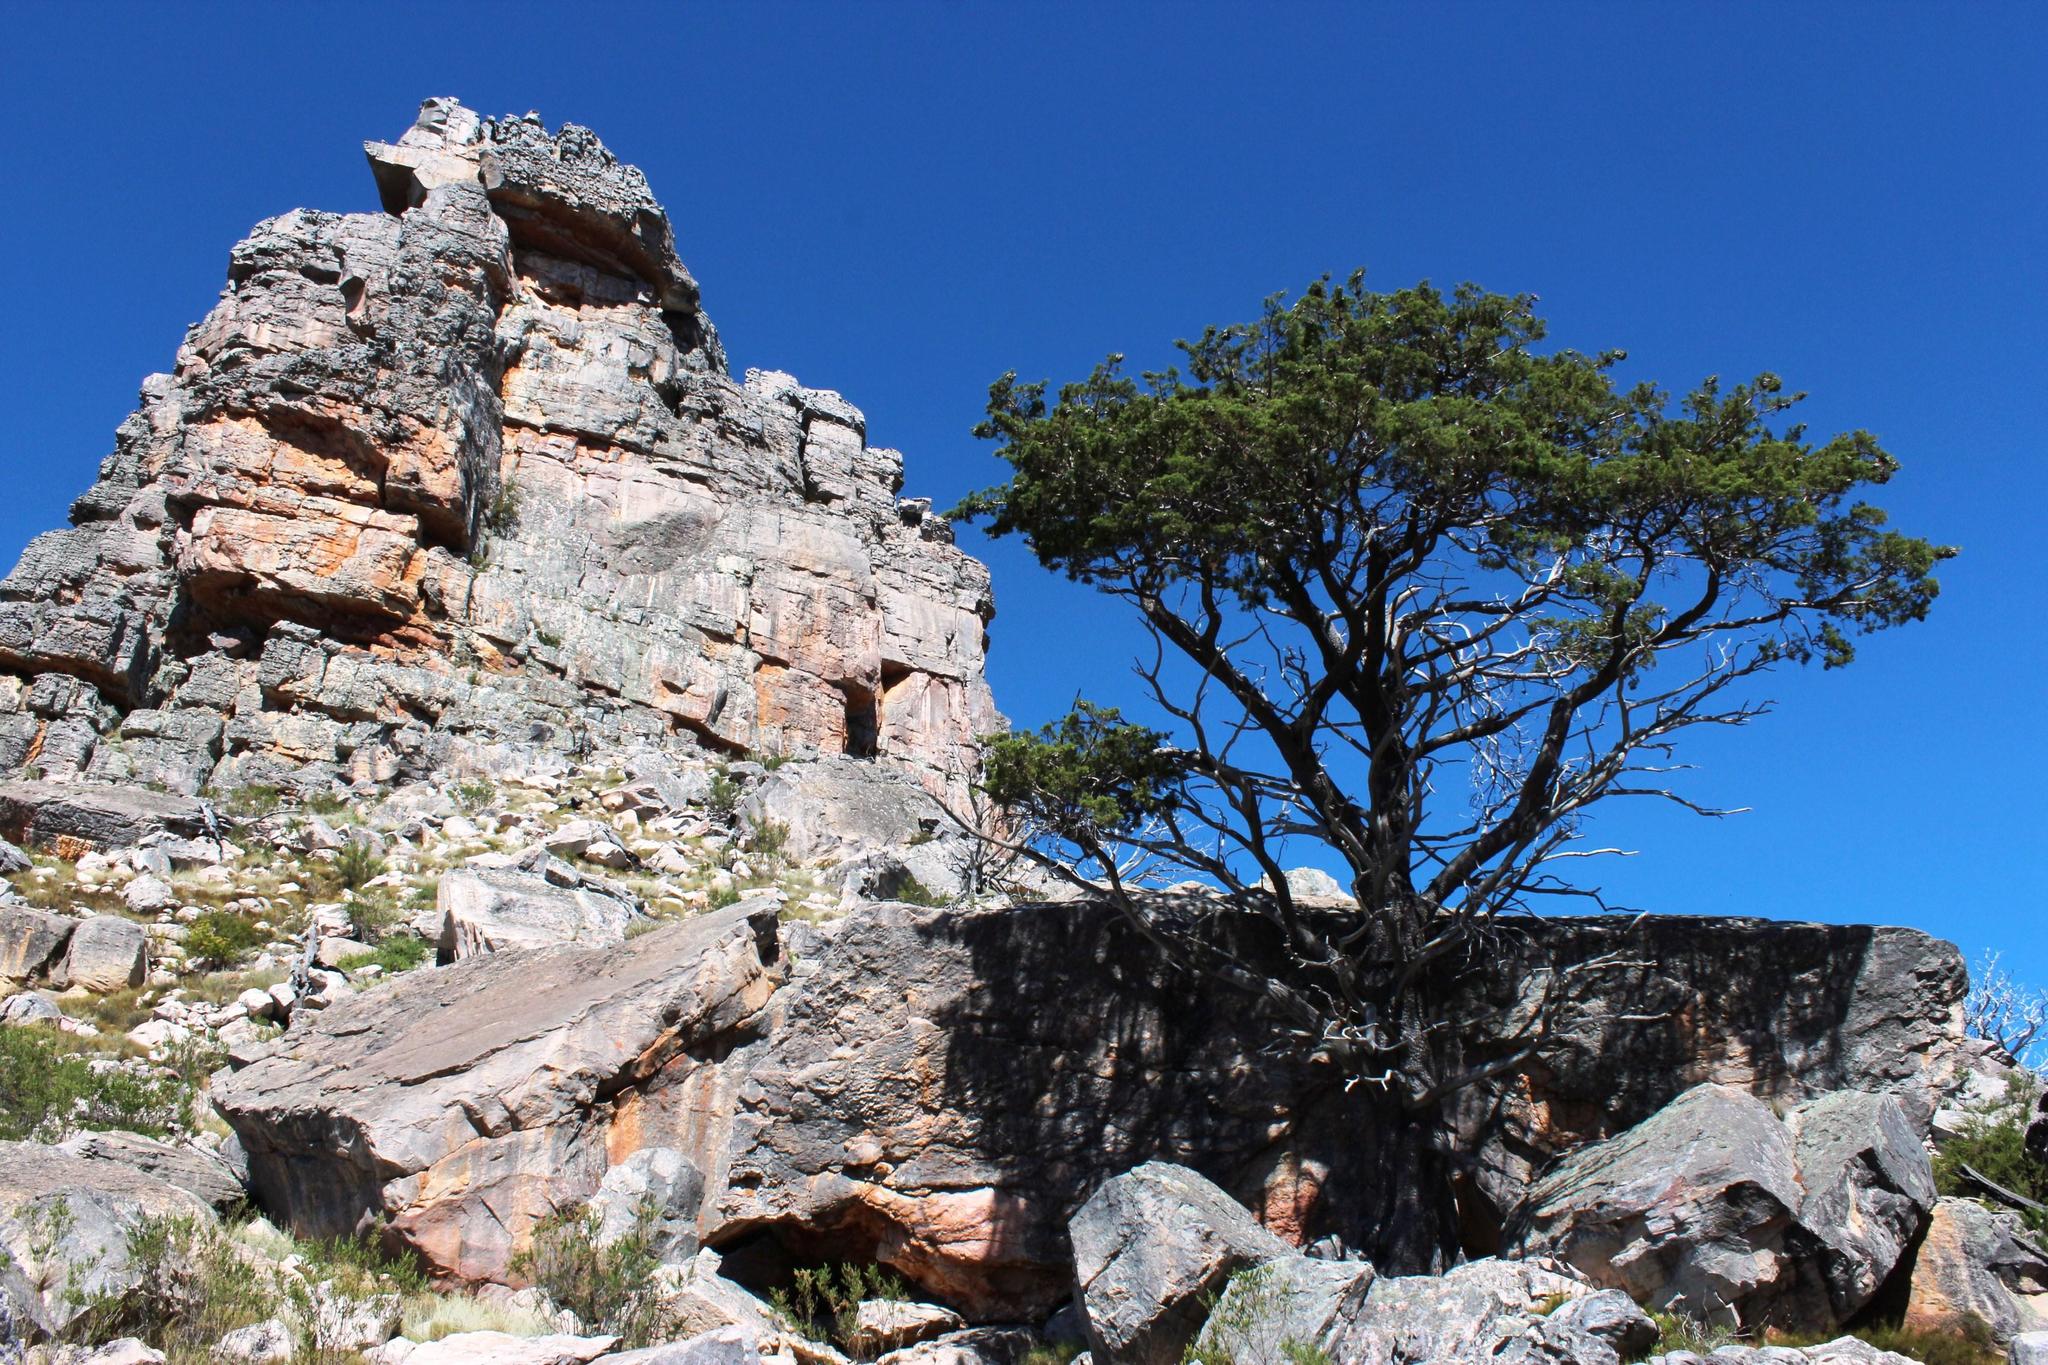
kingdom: Plantae
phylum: Tracheophyta
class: Pinopsida
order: Pinales
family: Cupressaceae
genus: Widdringtonia
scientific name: Widdringtonia nodiflora
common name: Cape cypress
